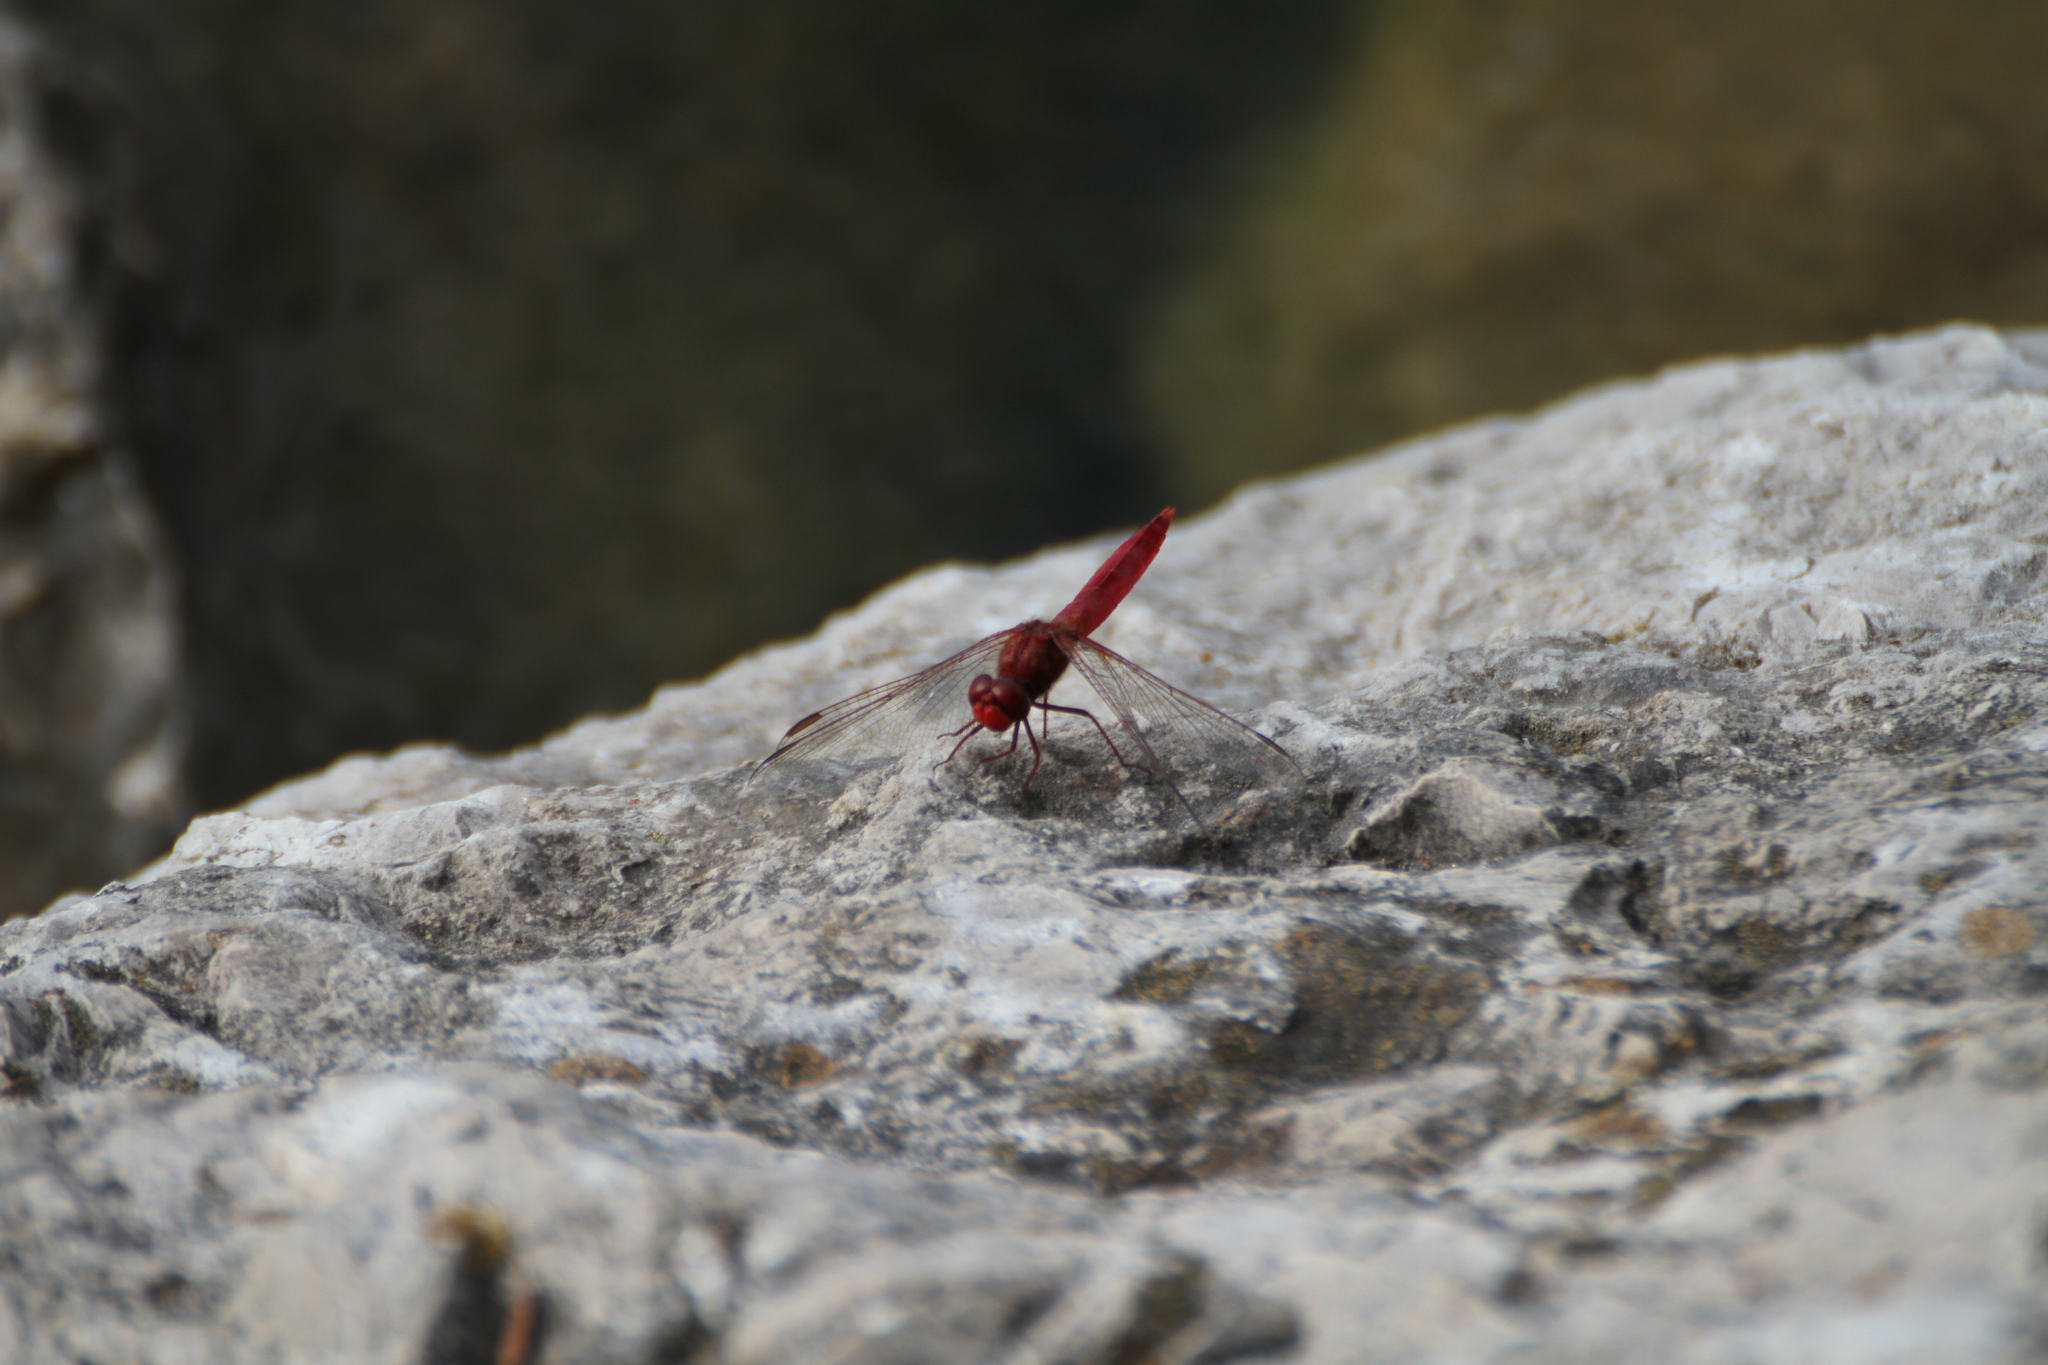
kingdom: Animalia
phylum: Arthropoda
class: Insecta
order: Odonata
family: Libellulidae
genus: Crocothemis
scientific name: Crocothemis erythraea
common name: Scarlet dragonfly
